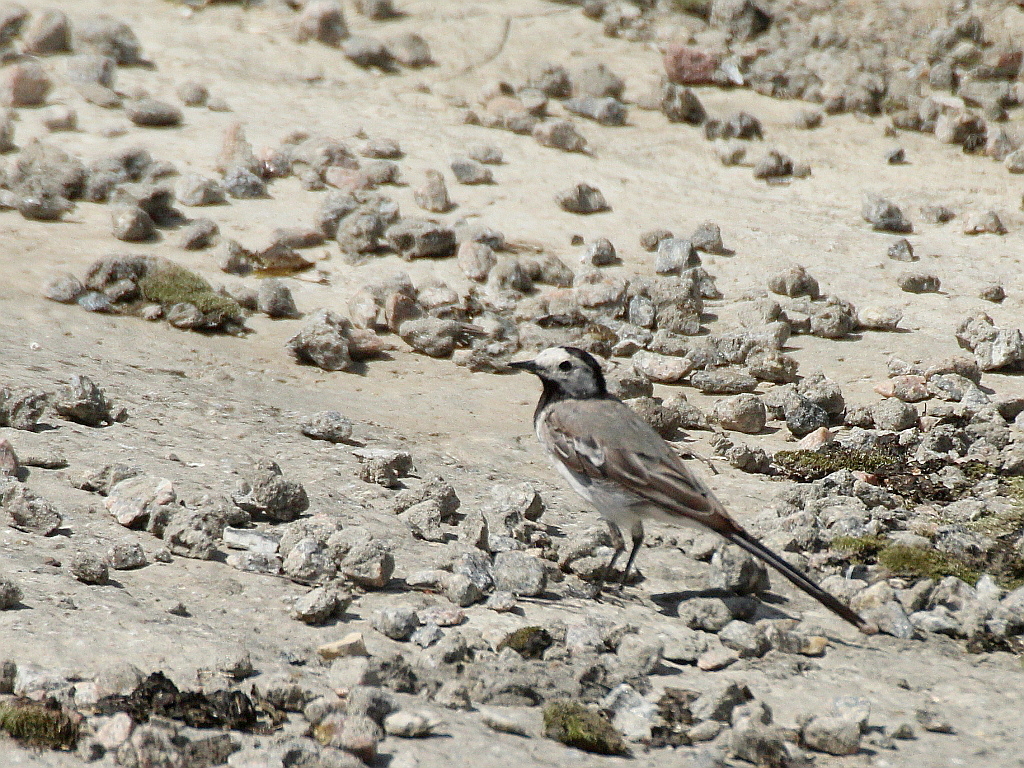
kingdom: Animalia
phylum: Chordata
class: Aves
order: Passeriformes
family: Motacillidae
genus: Motacilla
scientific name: Motacilla alba
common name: White wagtail
